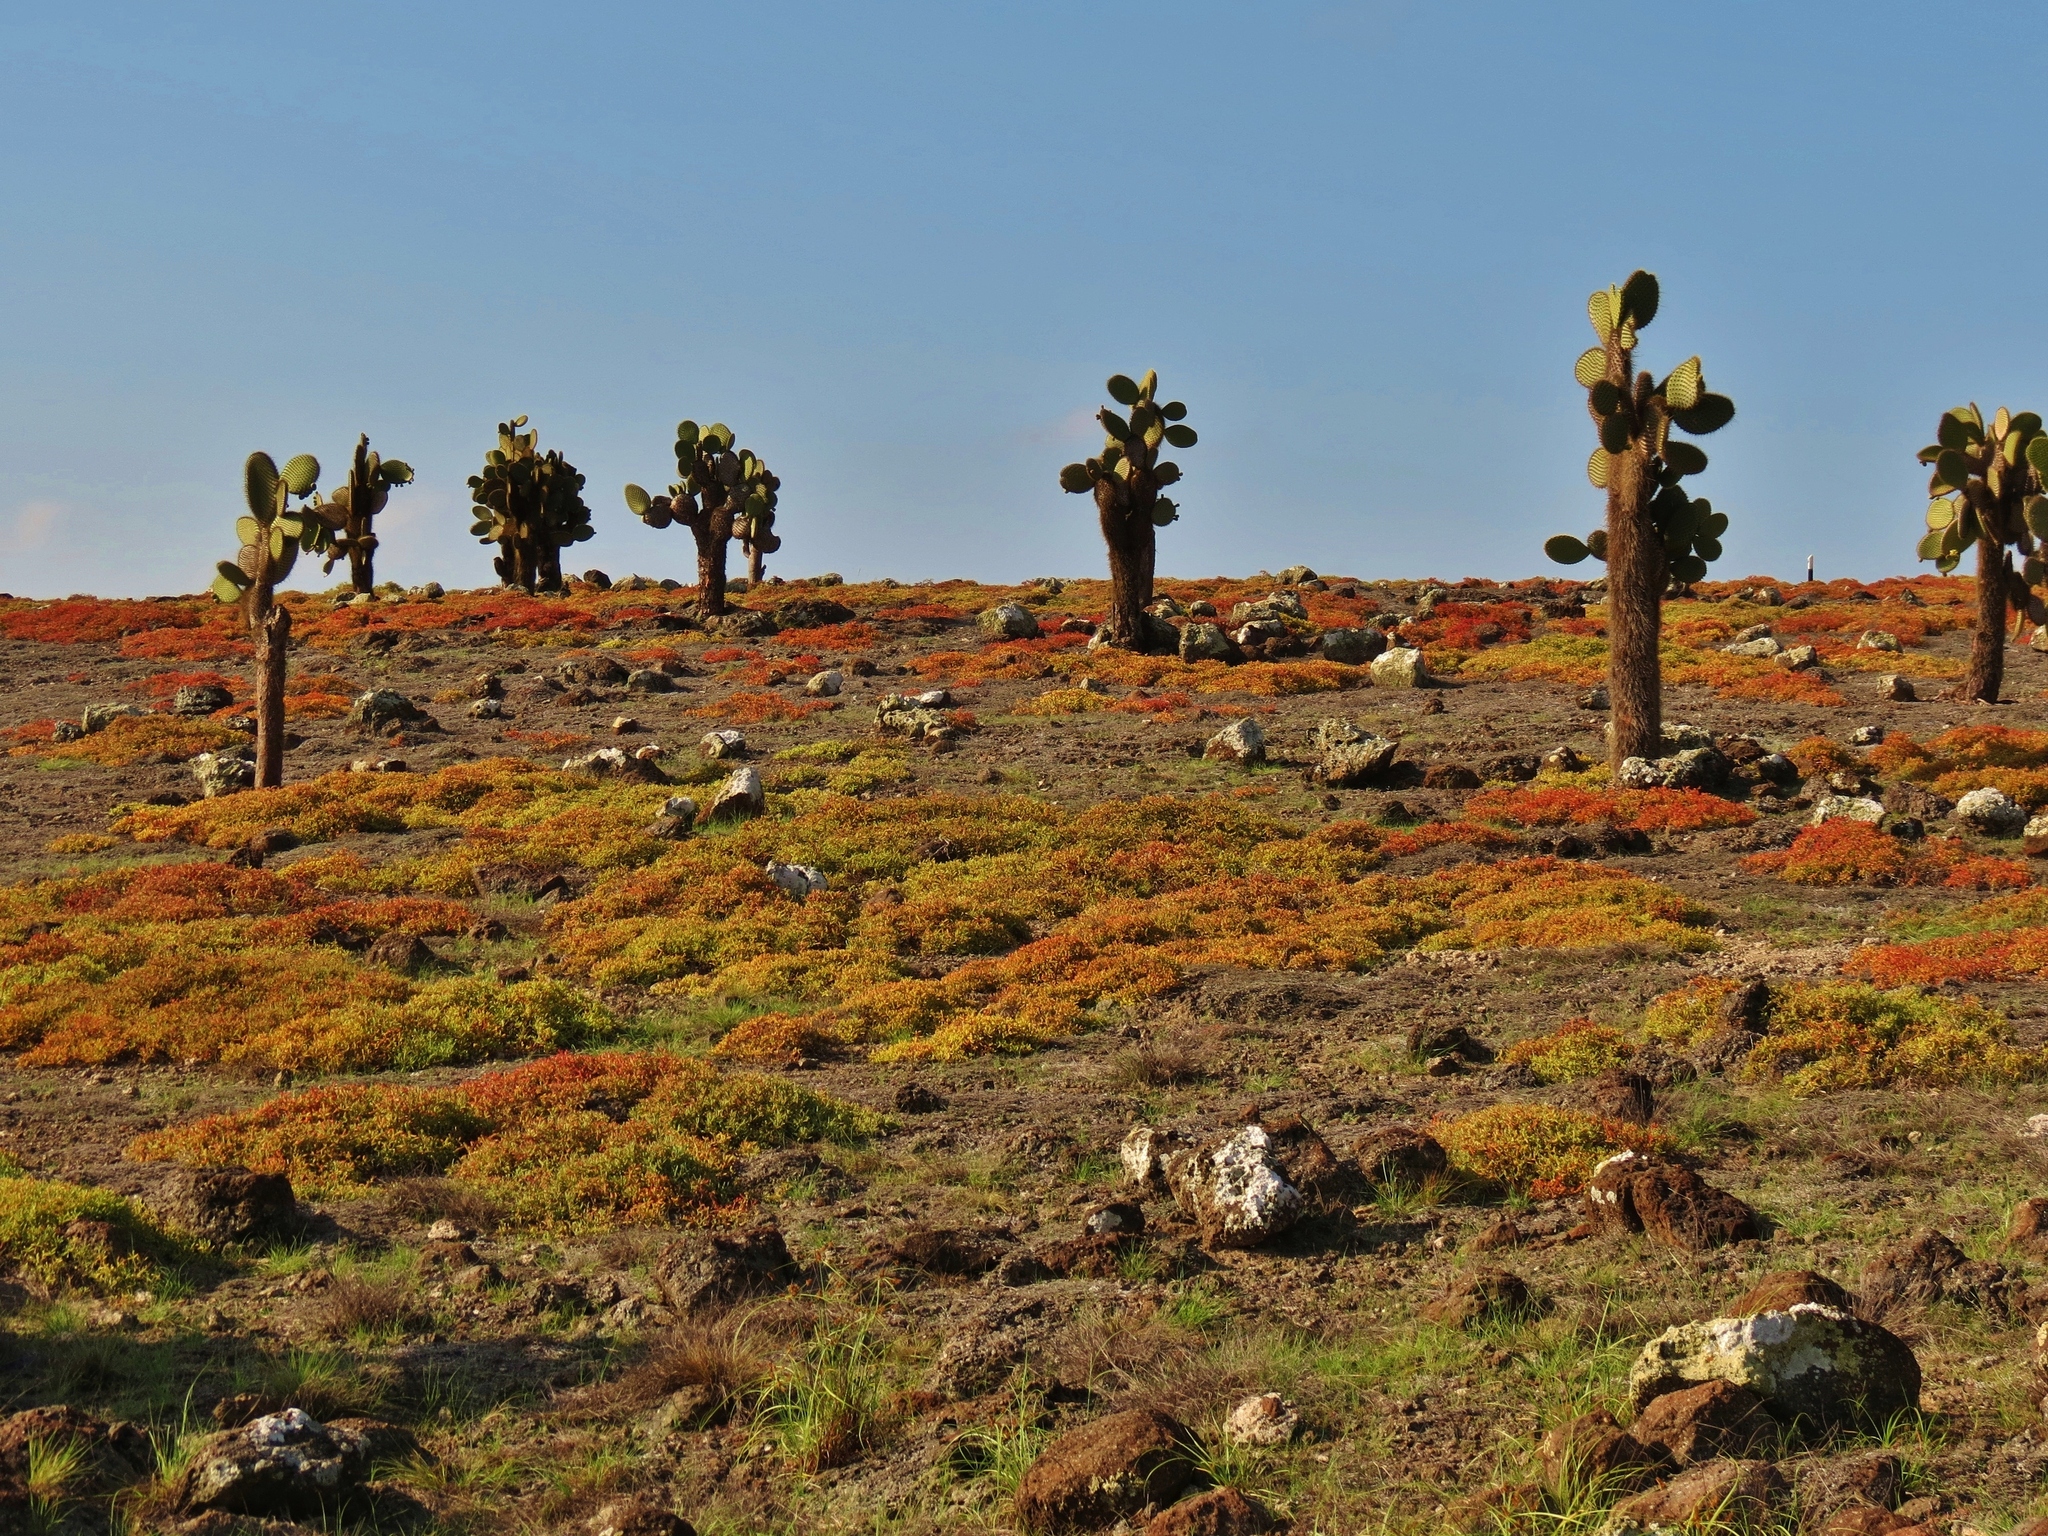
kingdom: Plantae
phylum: Tracheophyta
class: Magnoliopsida
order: Caryophyllales
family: Cactaceae
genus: Opuntia
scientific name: Opuntia galapageia
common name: Galápagos prickly pear
